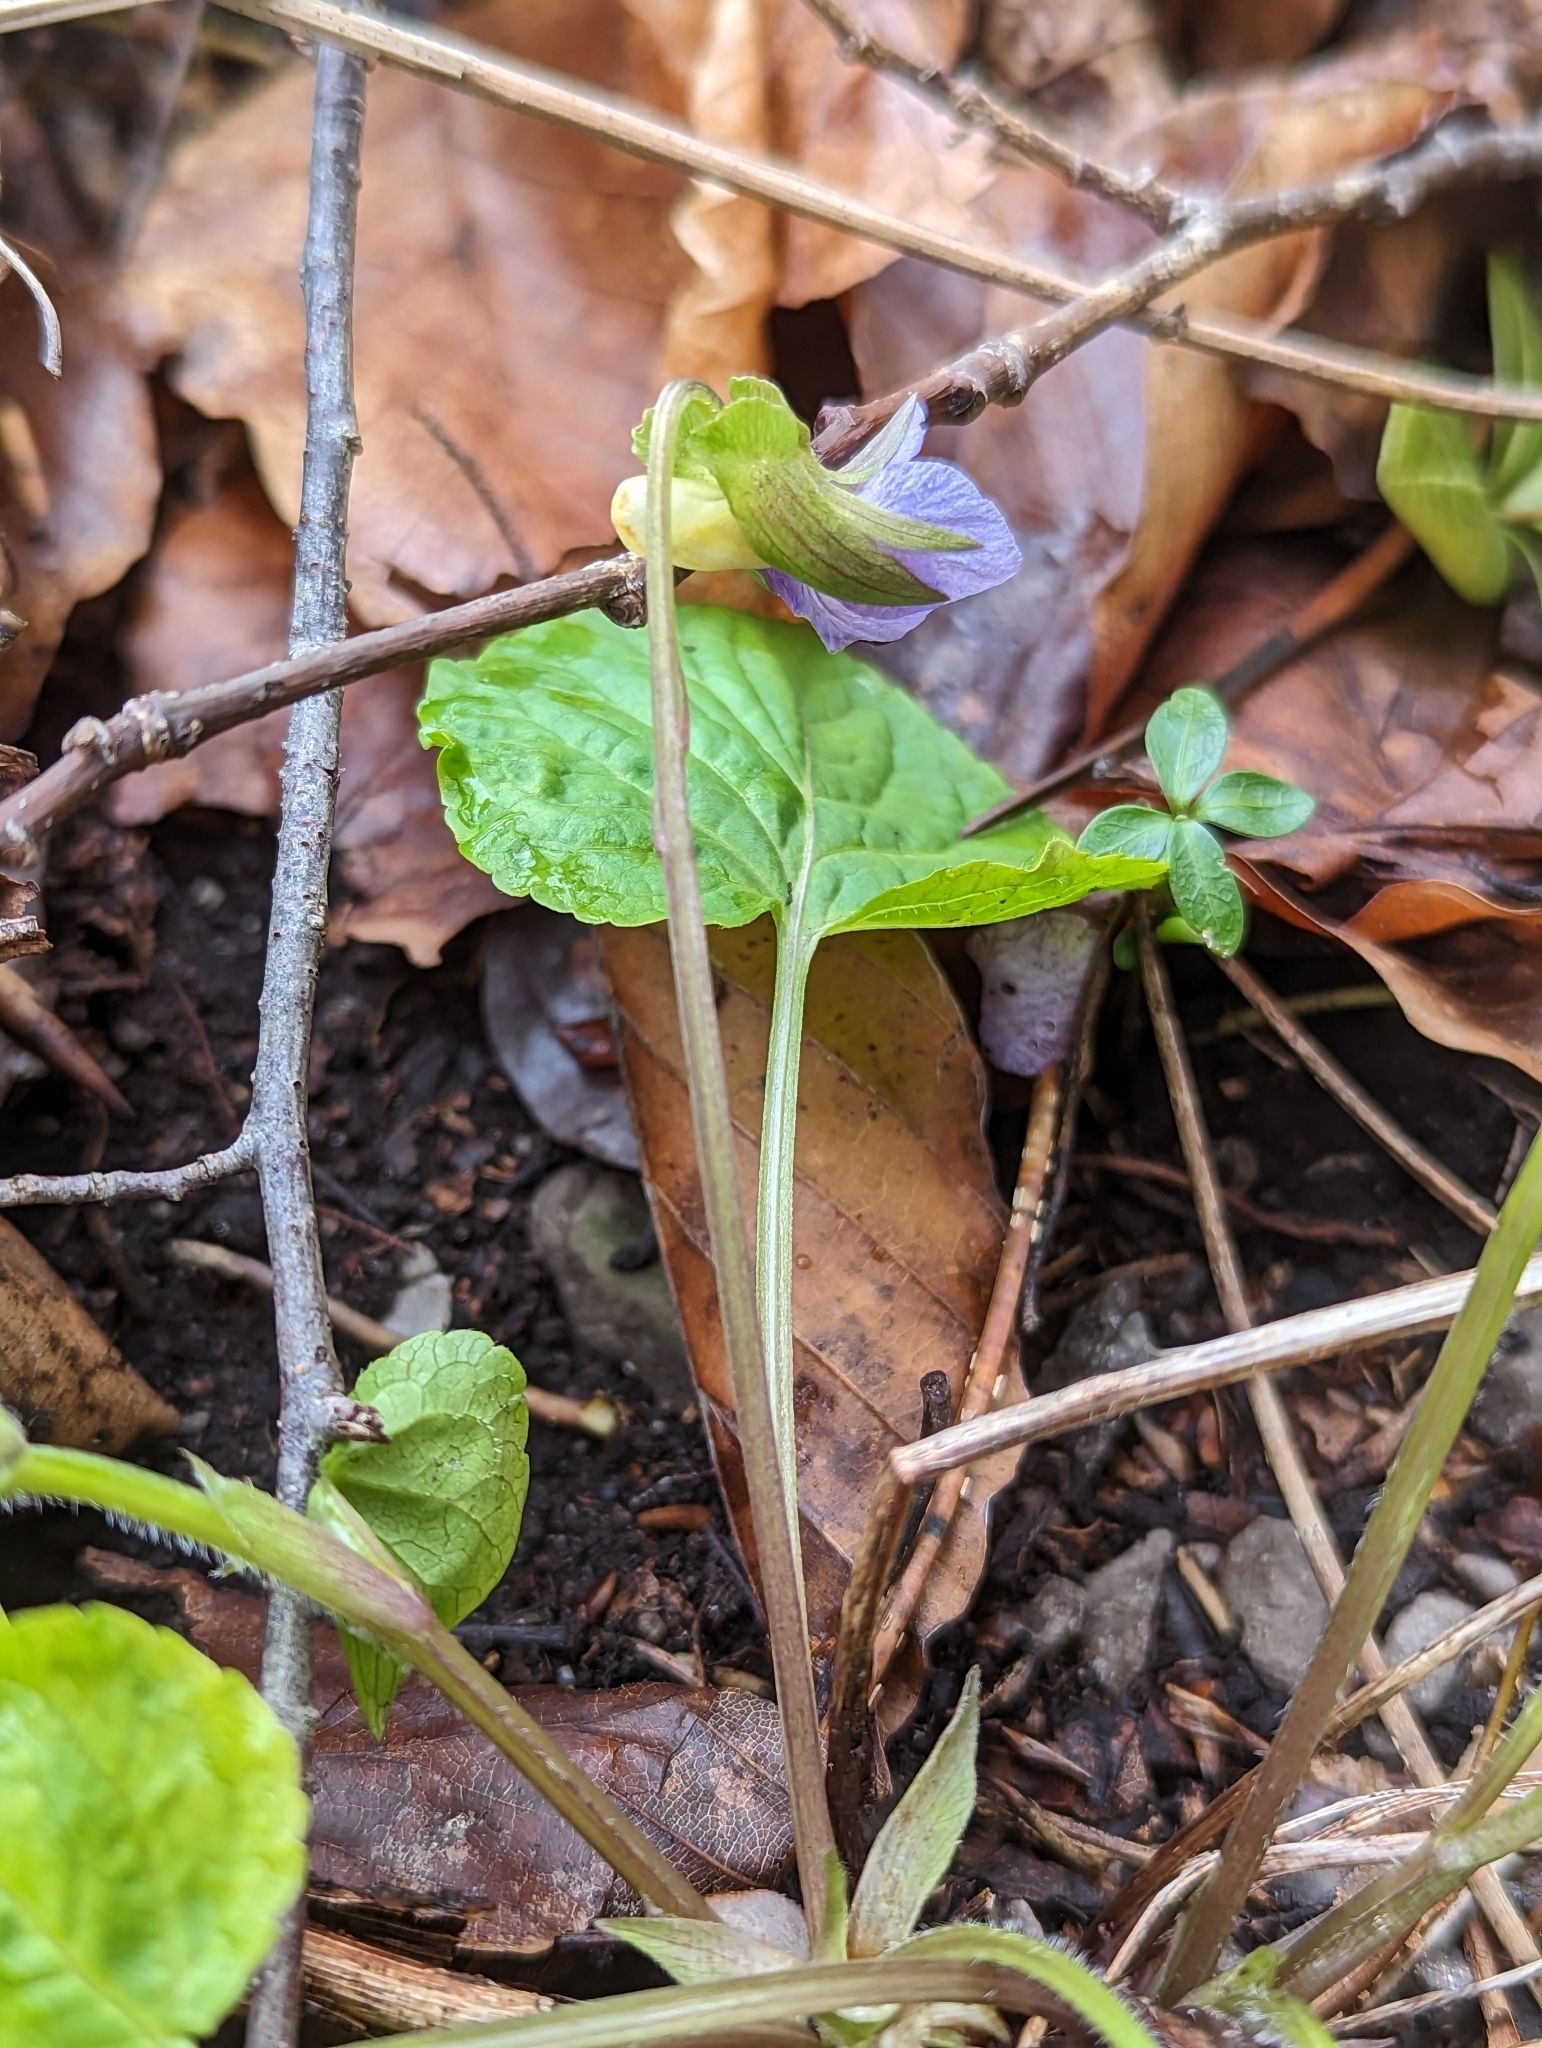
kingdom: Plantae
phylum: Tracheophyta
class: Magnoliopsida
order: Malpighiales
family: Violaceae
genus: Viola
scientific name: Viola mirabilis
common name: Wonder violet
